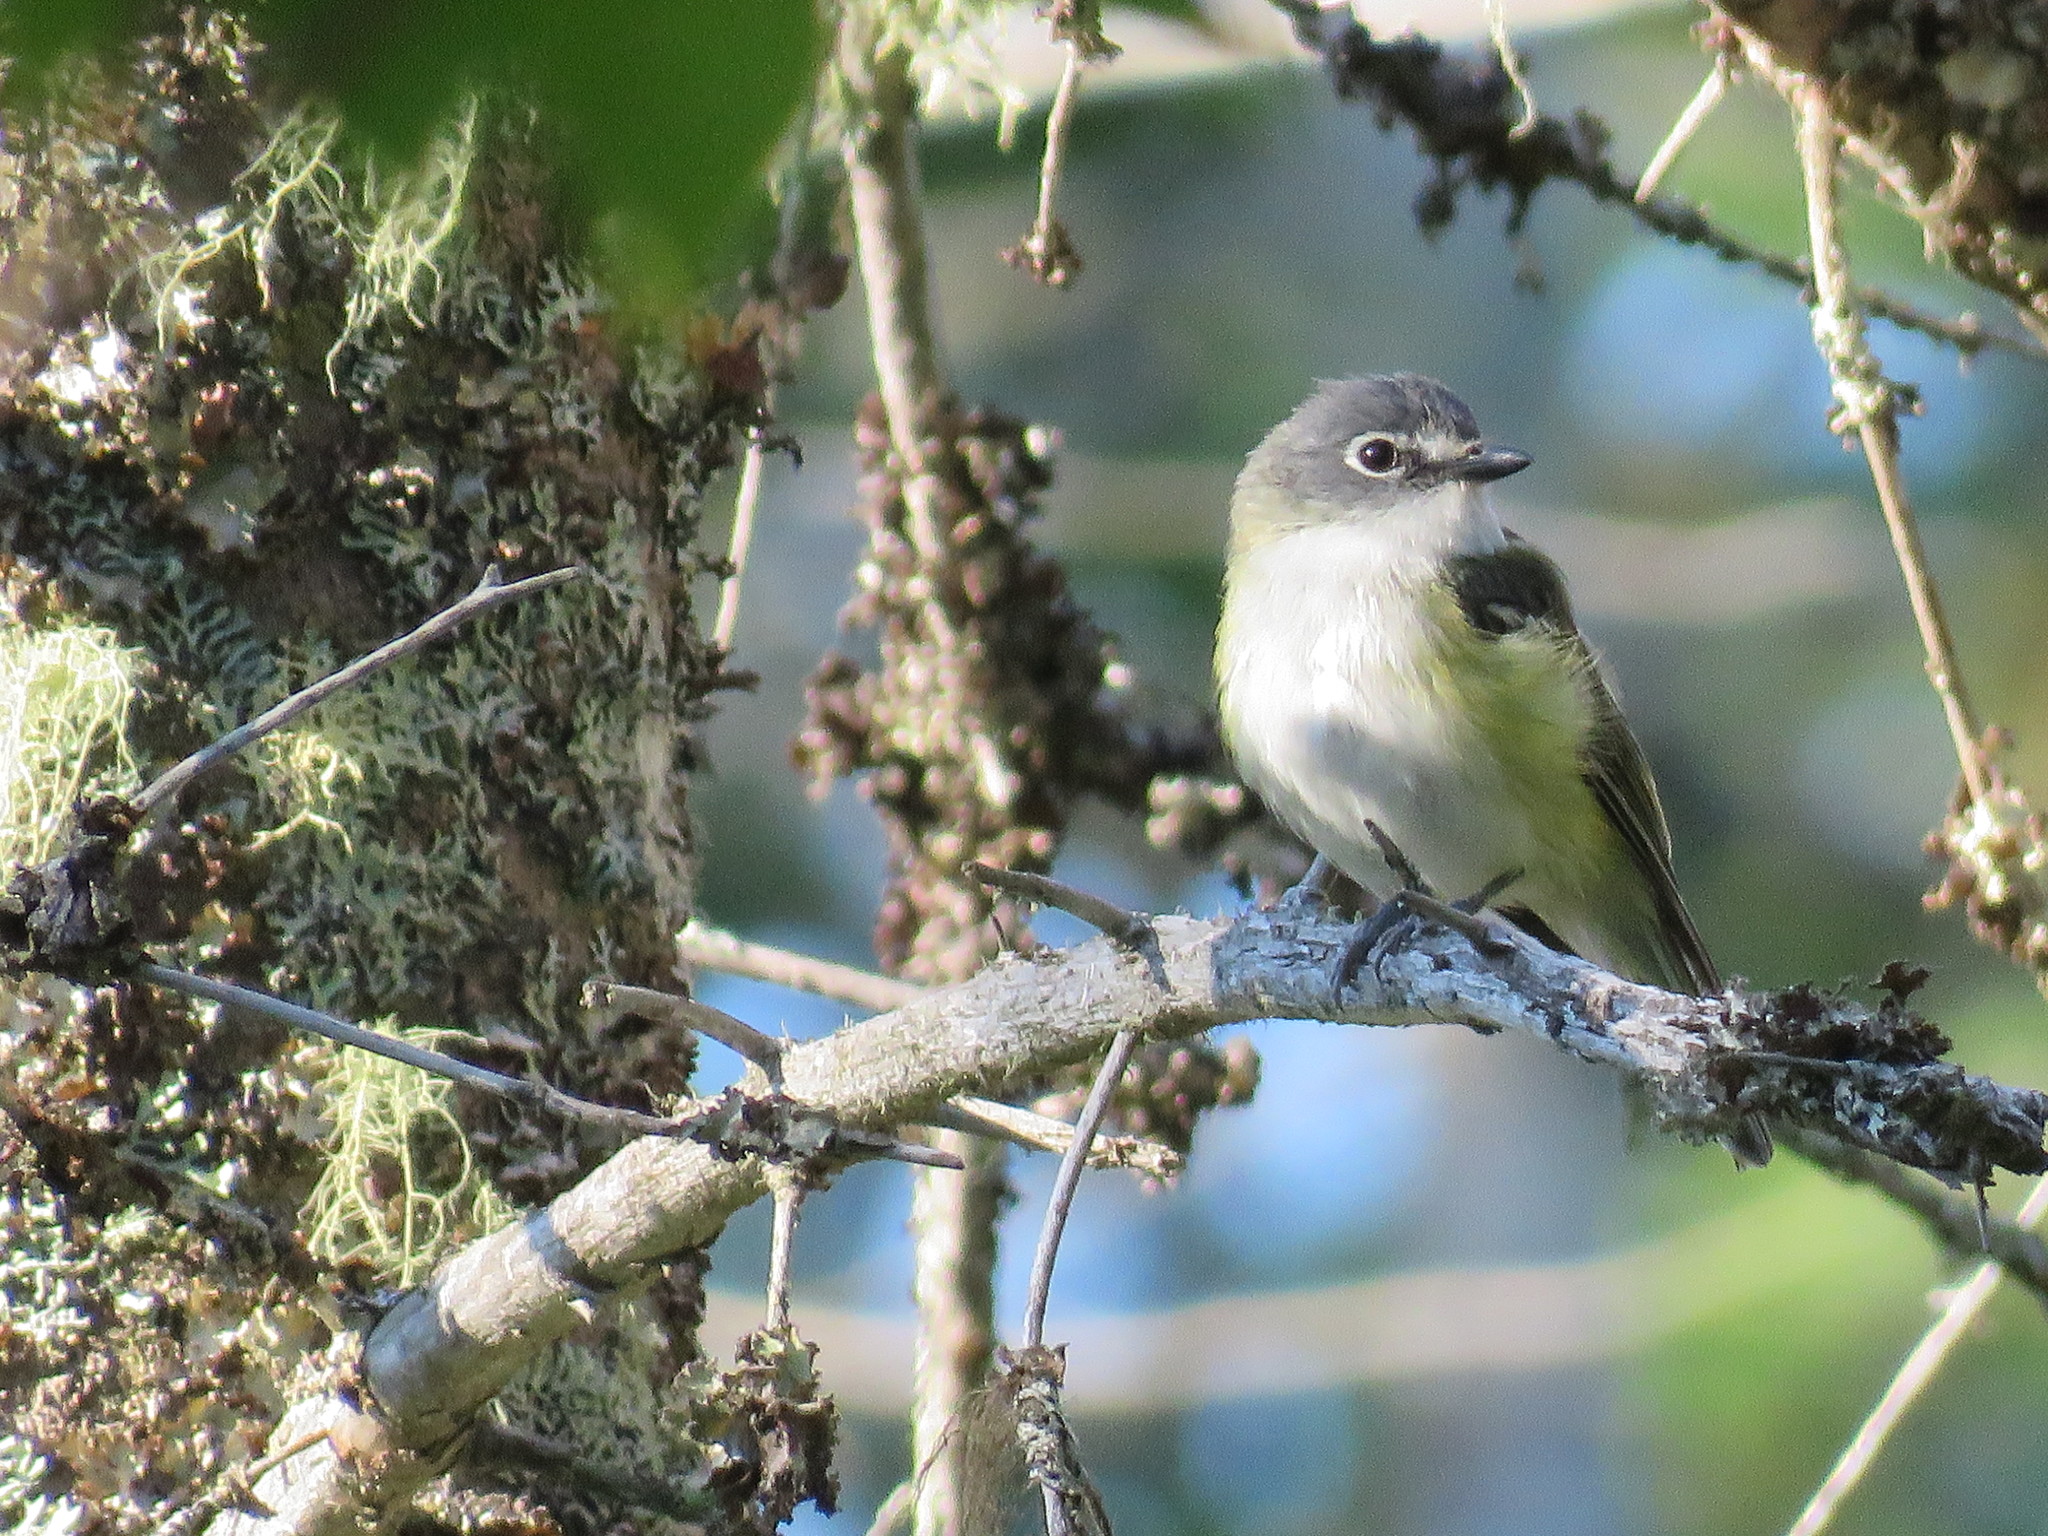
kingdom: Animalia
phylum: Chordata
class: Aves
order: Passeriformes
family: Vireonidae
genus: Vireo
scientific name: Vireo solitarius
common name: Blue-headed vireo
